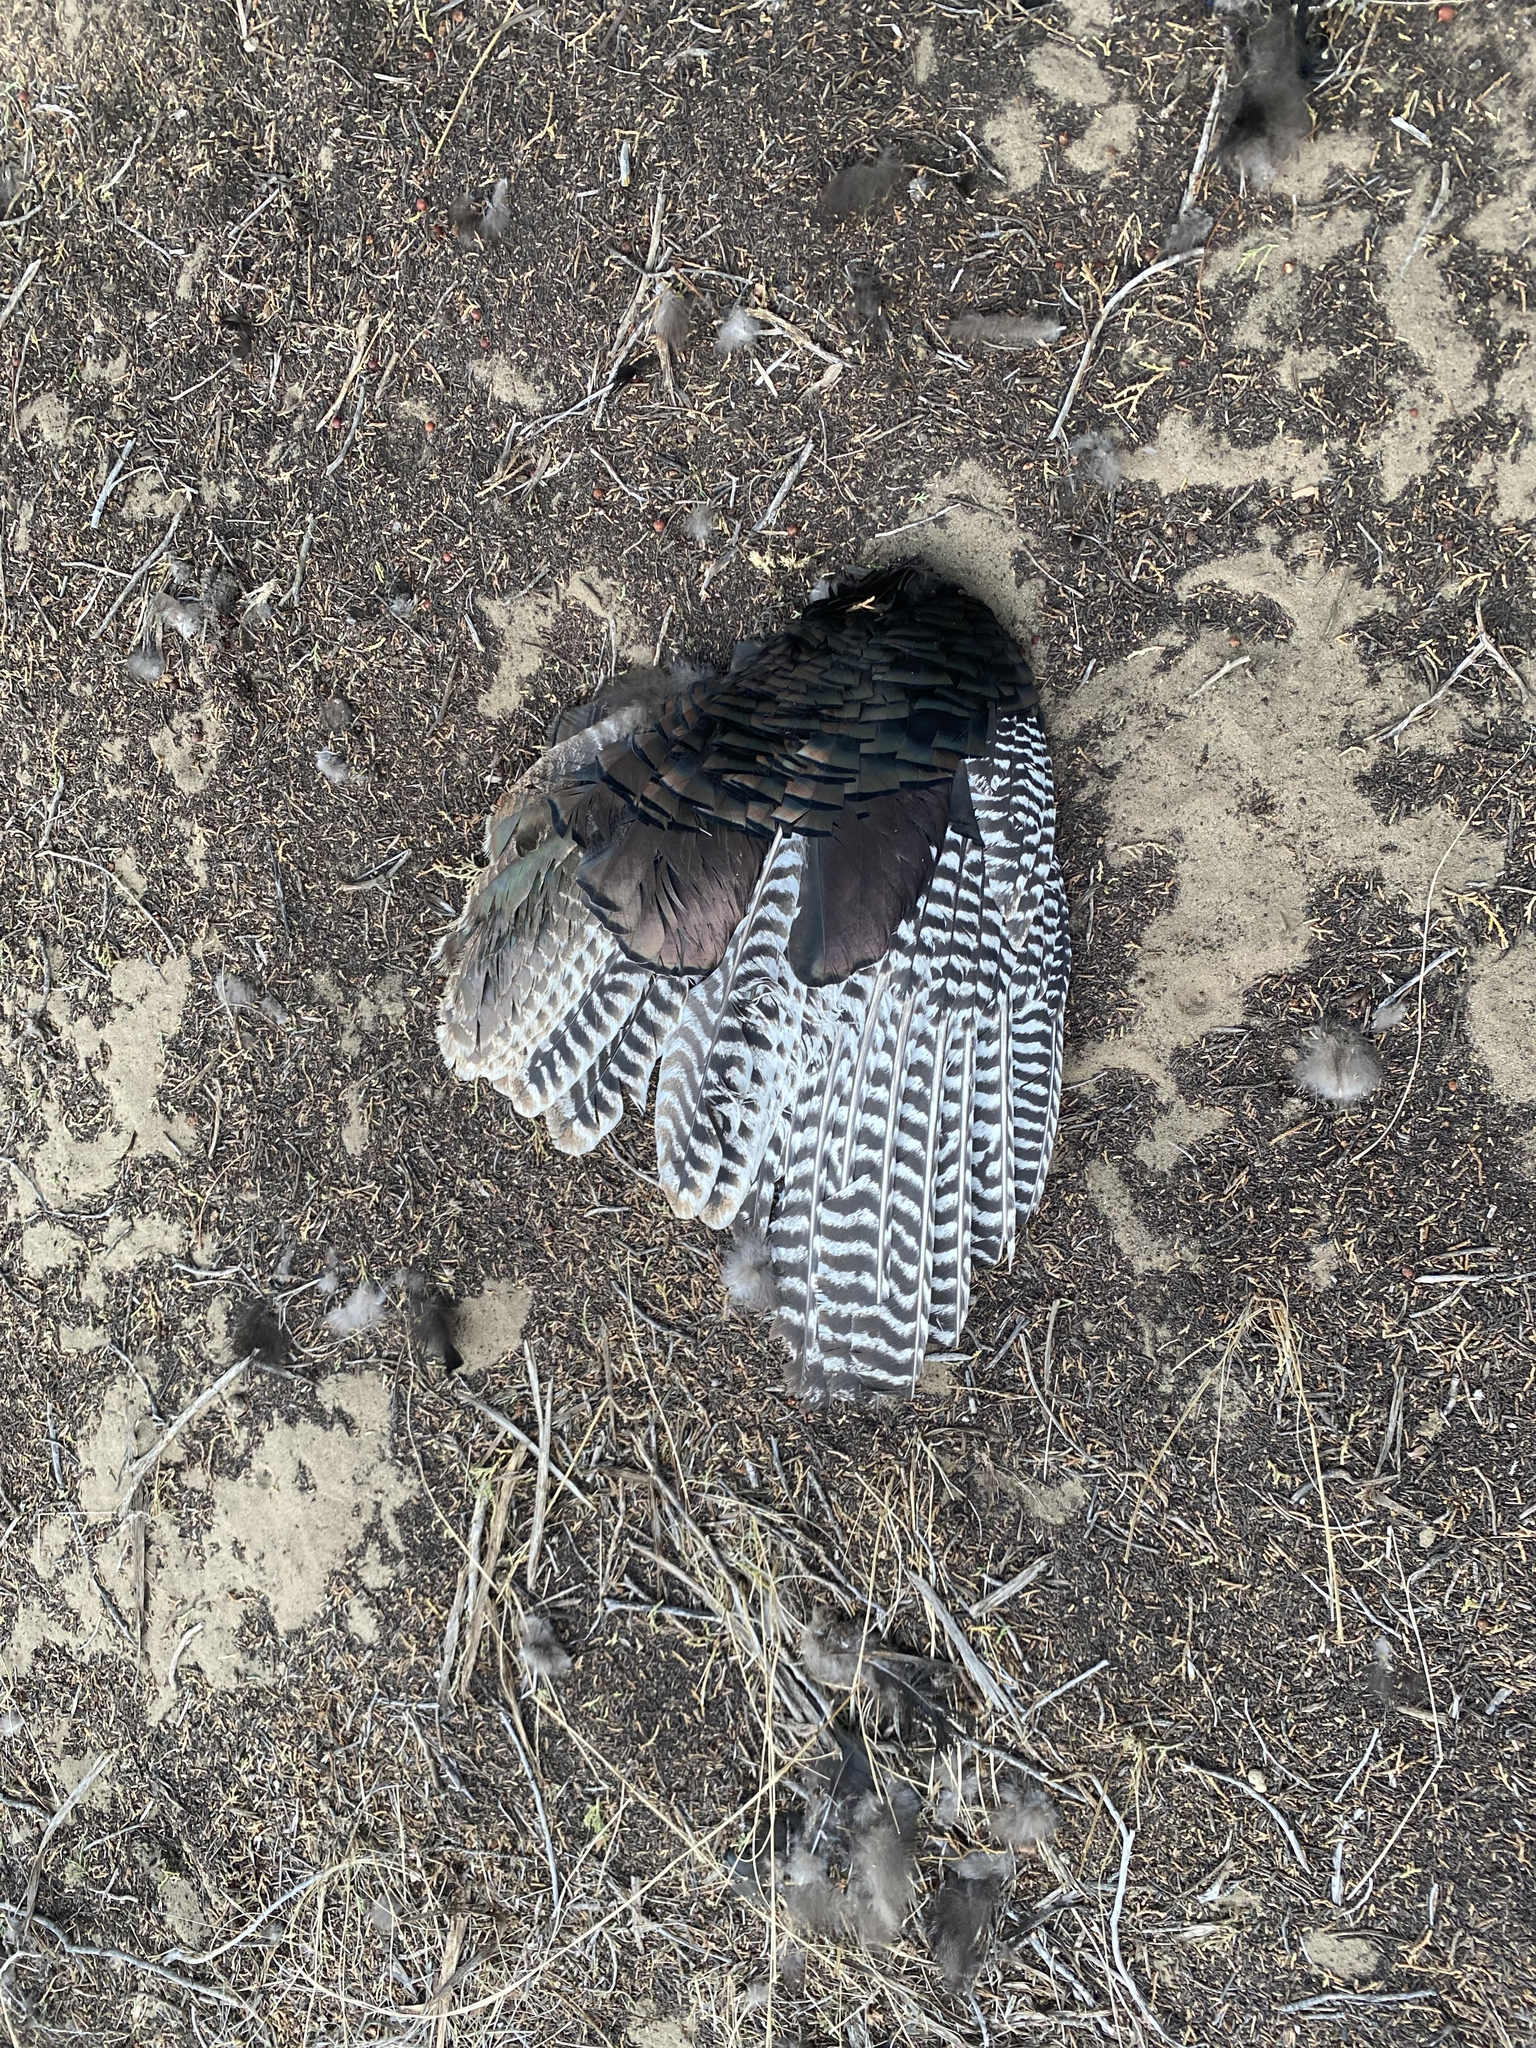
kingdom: Animalia
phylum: Chordata
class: Aves
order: Galliformes
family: Phasianidae
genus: Meleagris
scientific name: Meleagris gallopavo
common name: Wild turkey
